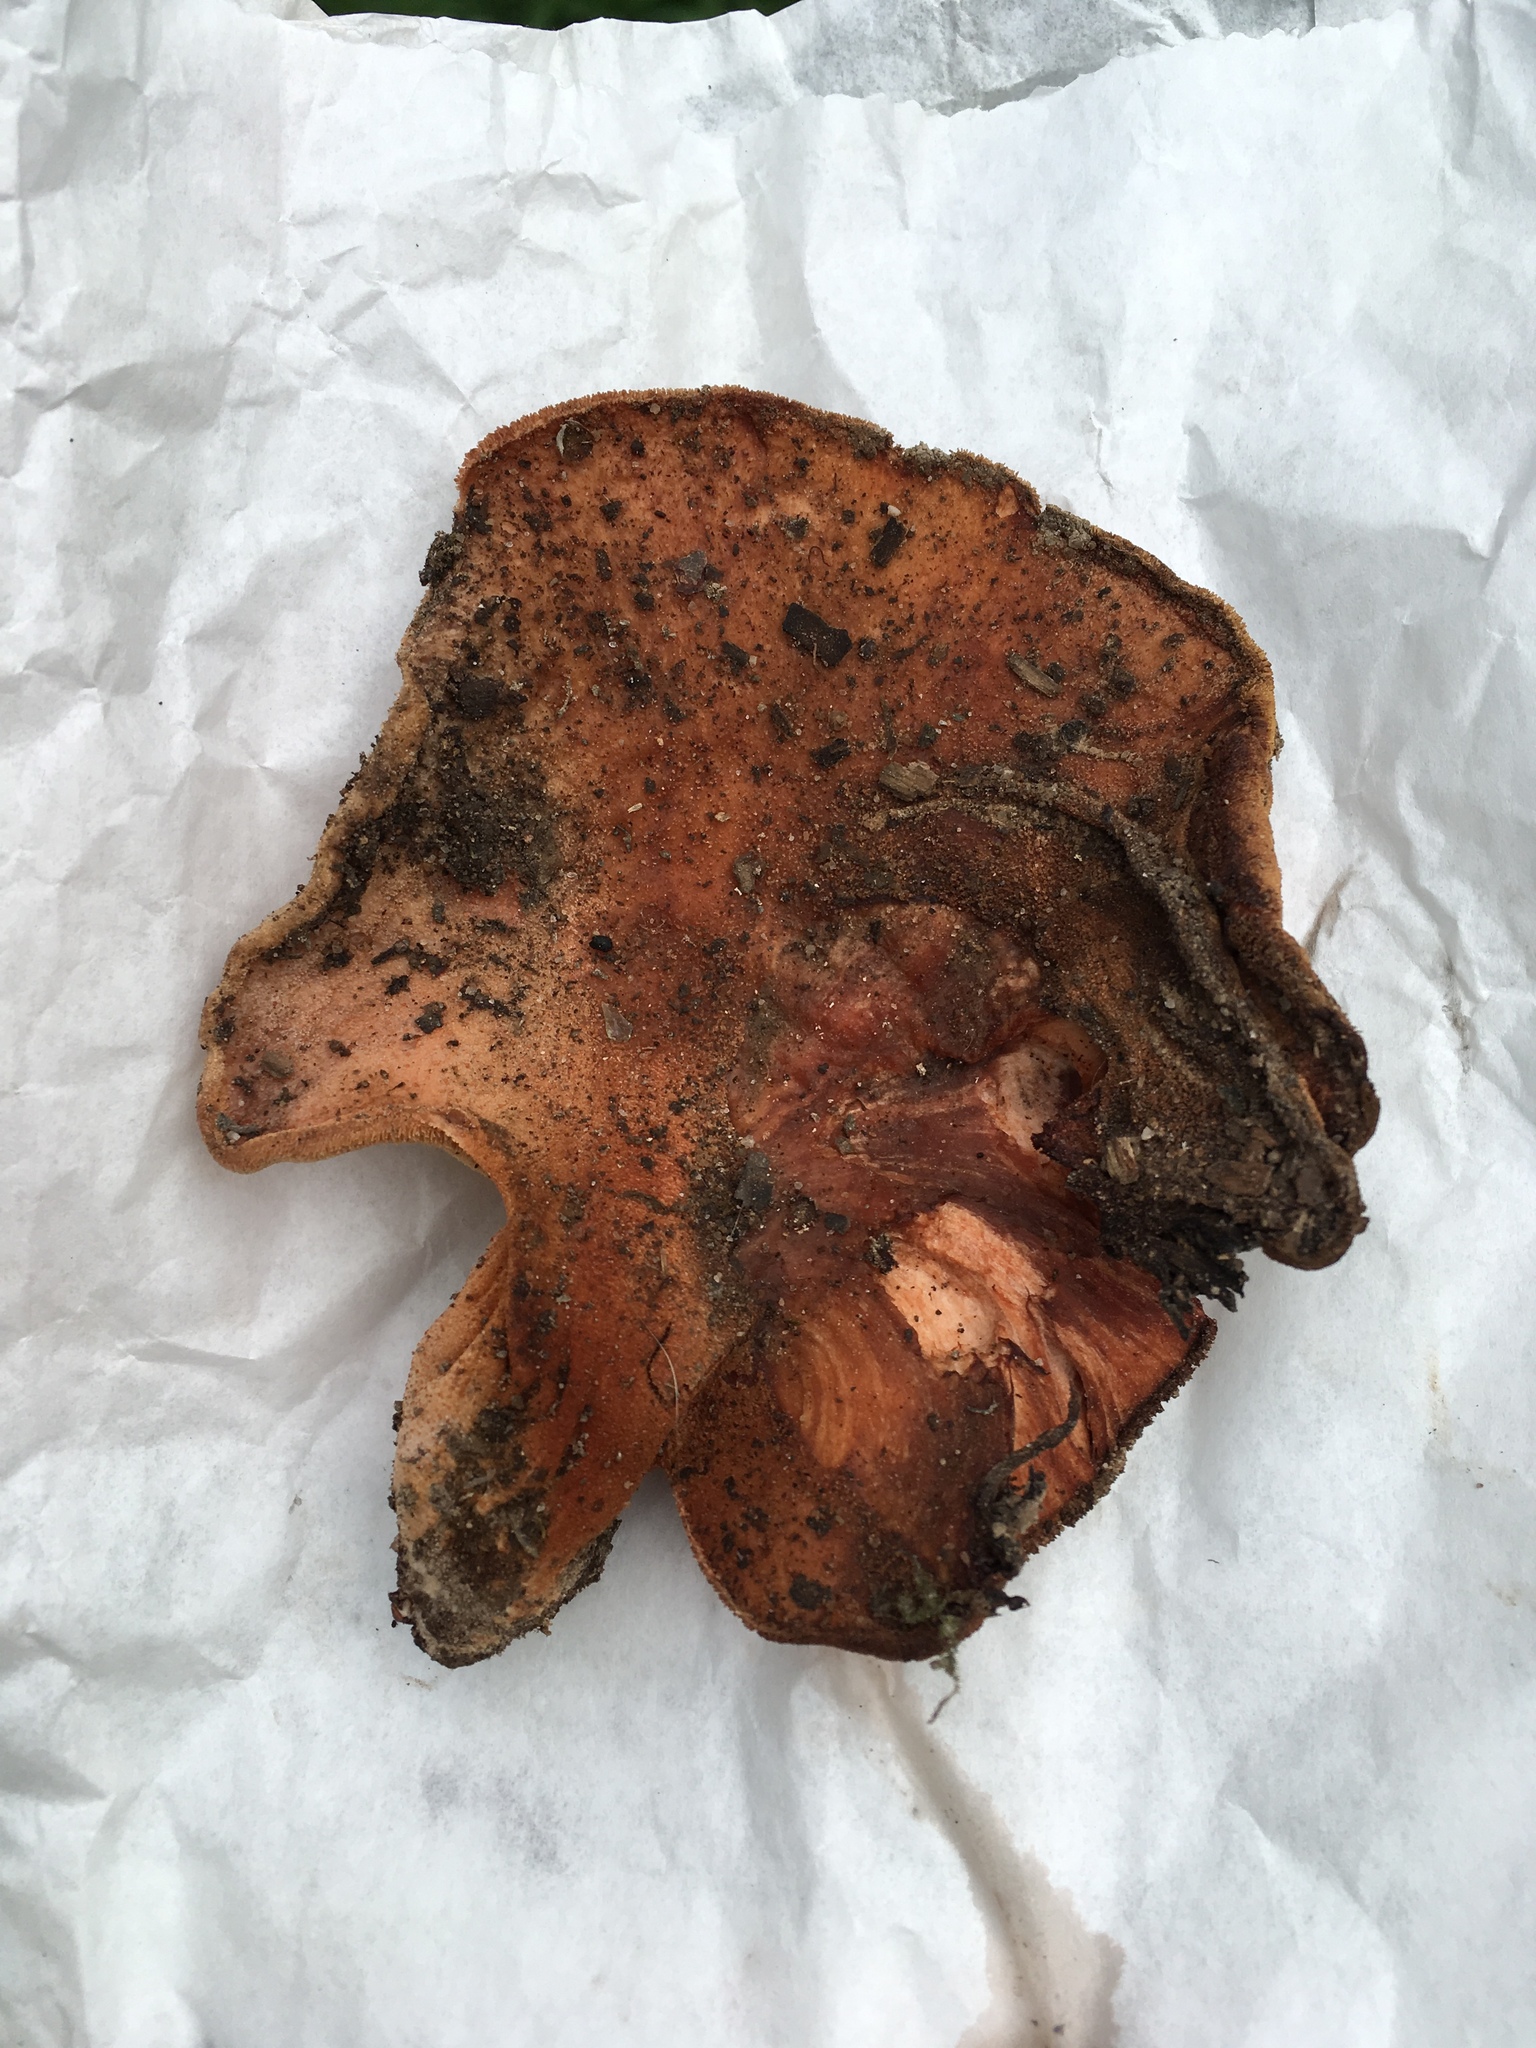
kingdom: Fungi
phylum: Basidiomycota
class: Agaricomycetes
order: Agaricales
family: Fistulinaceae
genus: Fistulina
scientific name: Fistulina hepatica
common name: Beef-steak fungus
